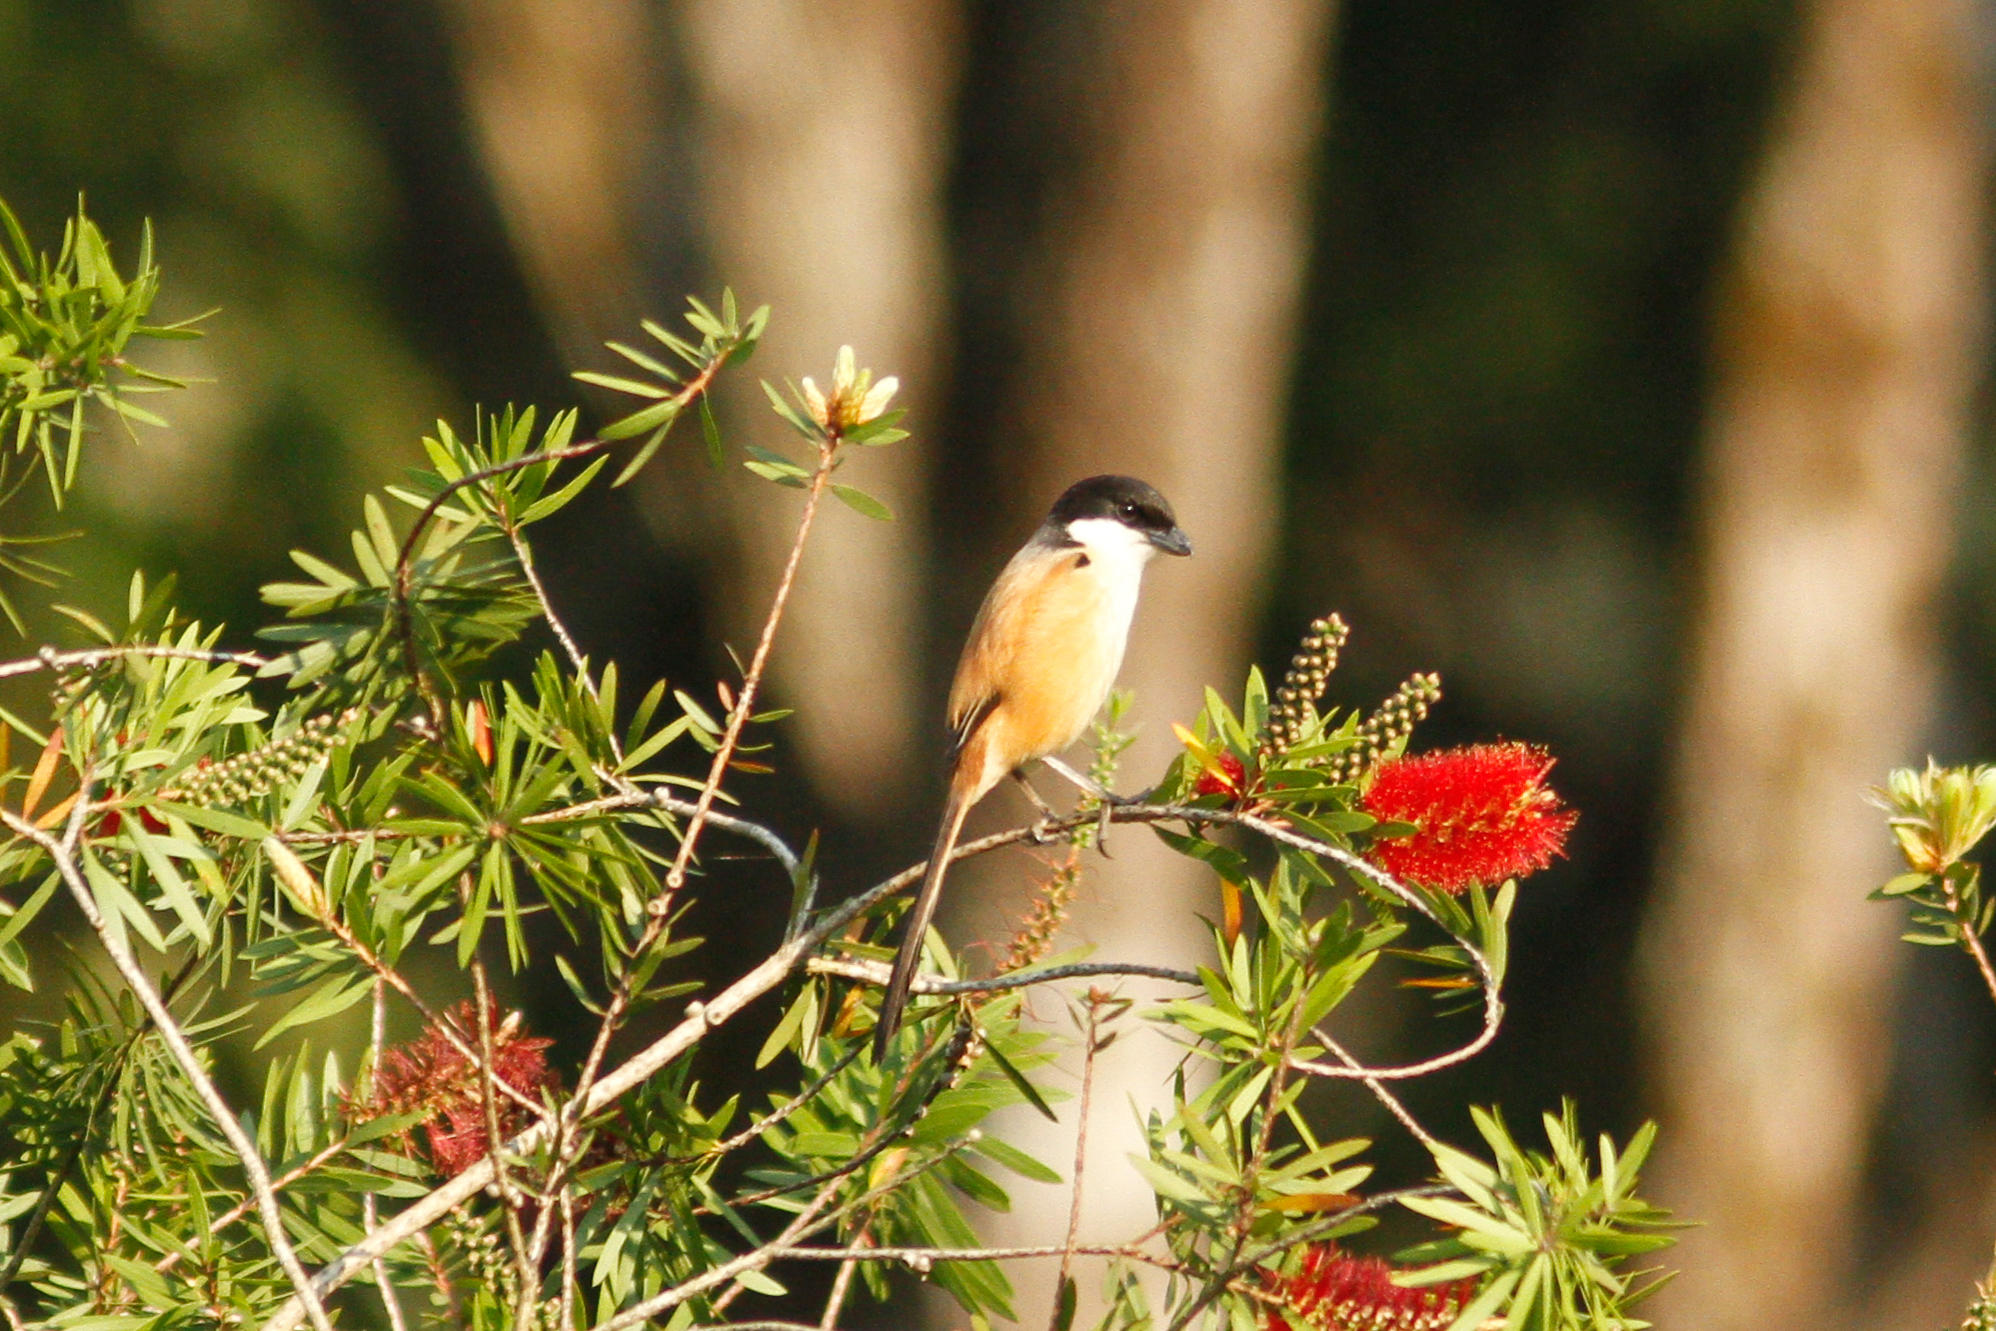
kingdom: Animalia
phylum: Chordata
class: Aves
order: Passeriformes
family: Laniidae
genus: Lanius
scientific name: Lanius schach
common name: Long-tailed shrike
